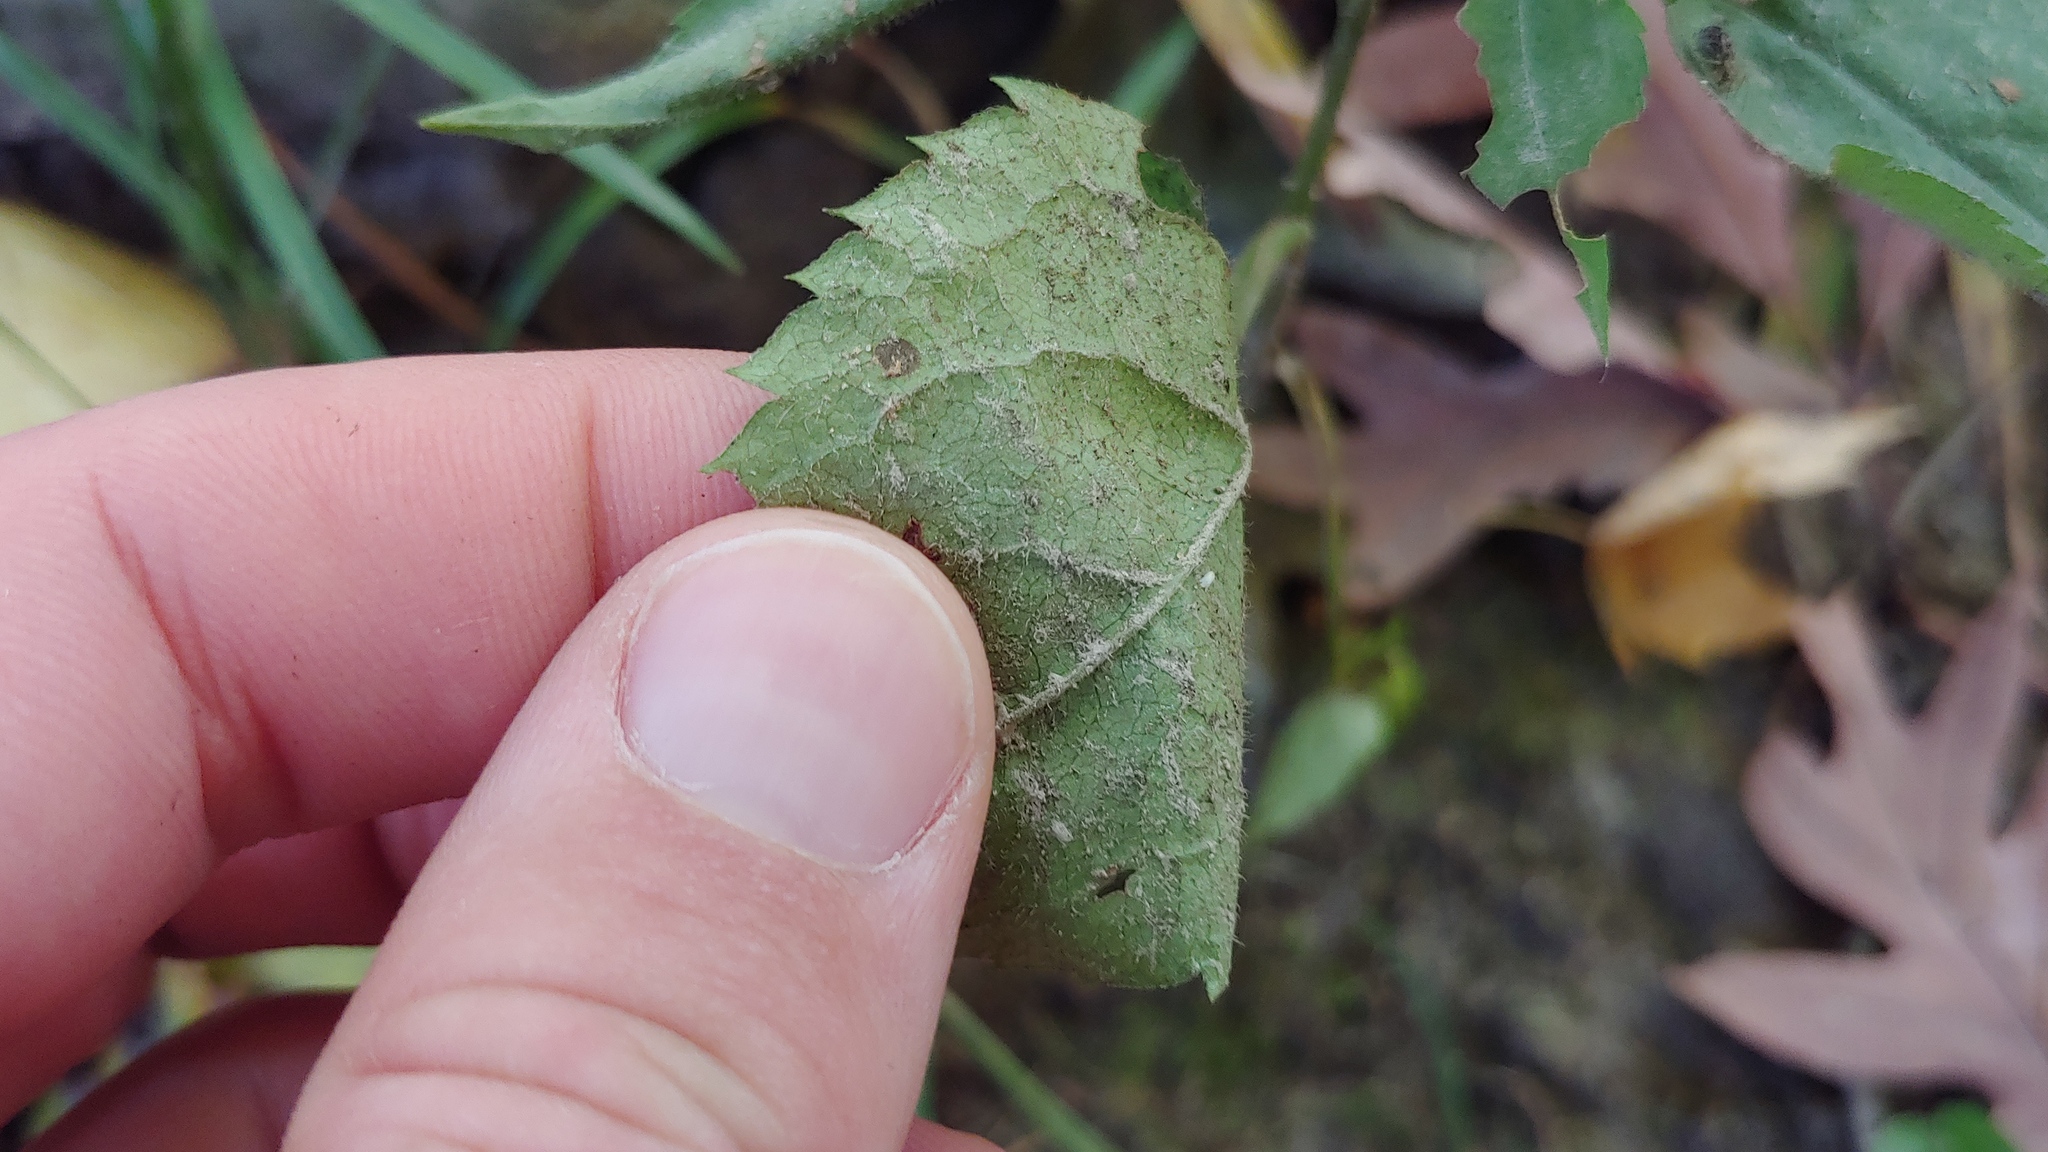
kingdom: Plantae
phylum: Tracheophyta
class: Magnoliopsida
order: Asterales
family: Asteraceae
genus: Symphyotrichum
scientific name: Symphyotrichum cordifolium
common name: Beeweed
